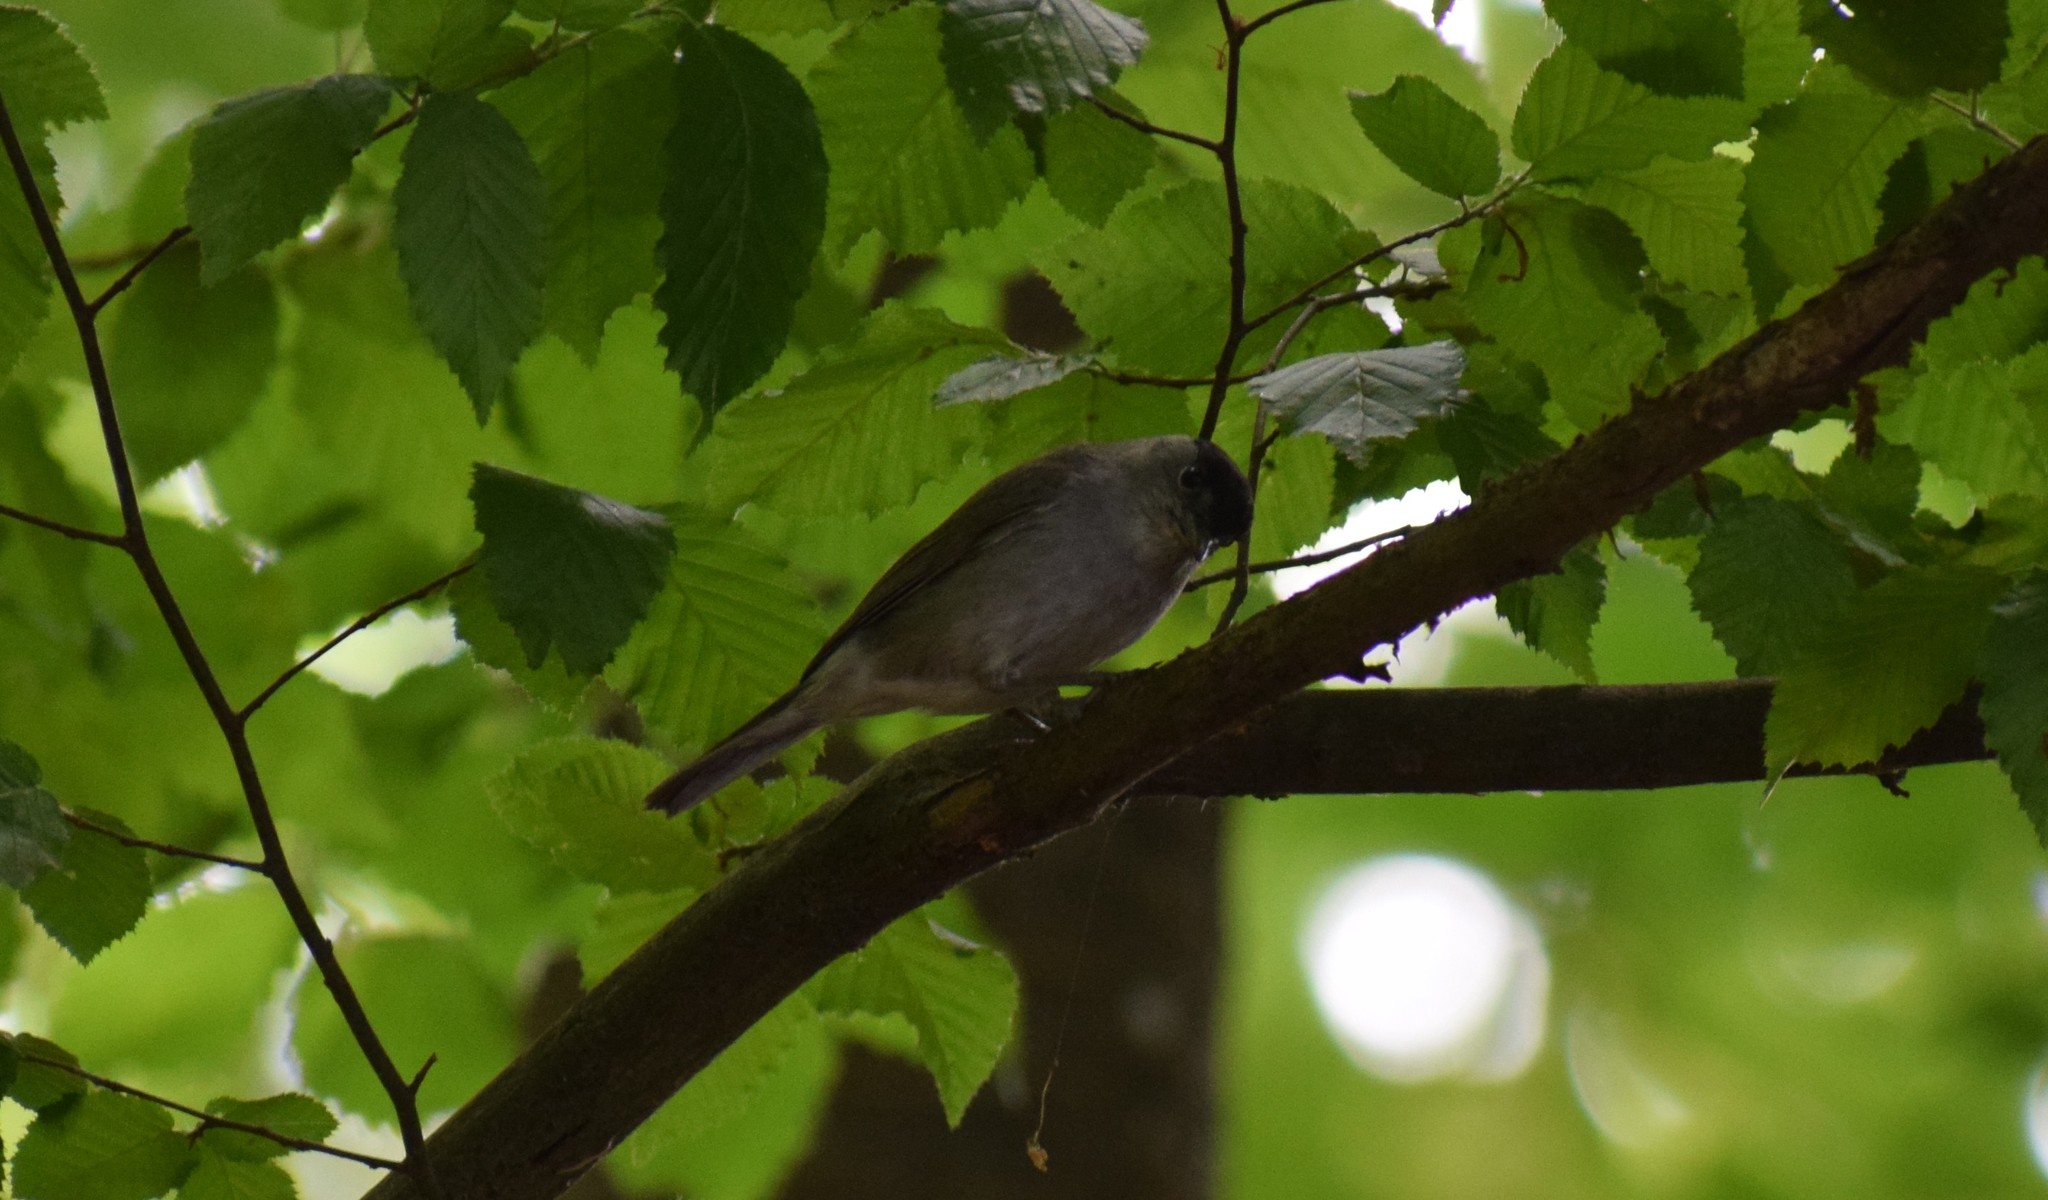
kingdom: Animalia
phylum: Chordata
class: Aves
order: Passeriformes
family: Sylviidae
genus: Sylvia
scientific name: Sylvia atricapilla
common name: Eurasian blackcap
